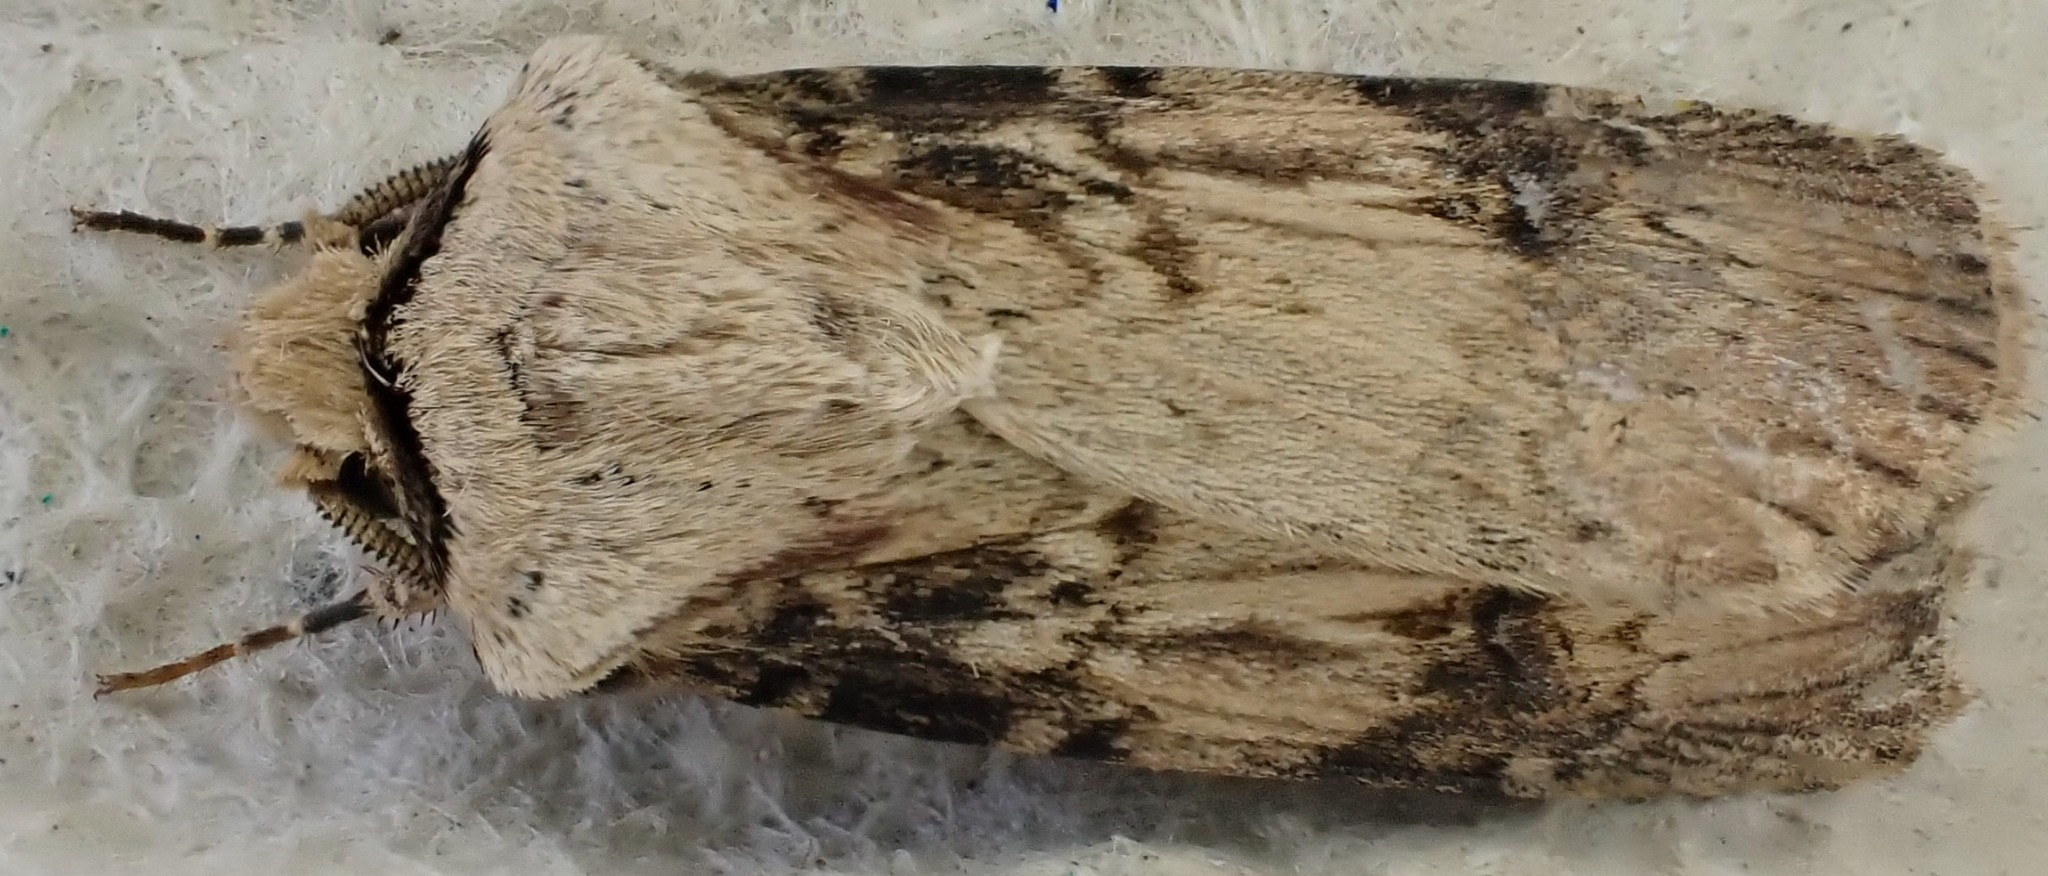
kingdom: Animalia
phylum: Arthropoda
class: Insecta
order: Lepidoptera
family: Noctuidae
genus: Agrotis
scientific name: Agrotis puta
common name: Shuttle-shaped dart
